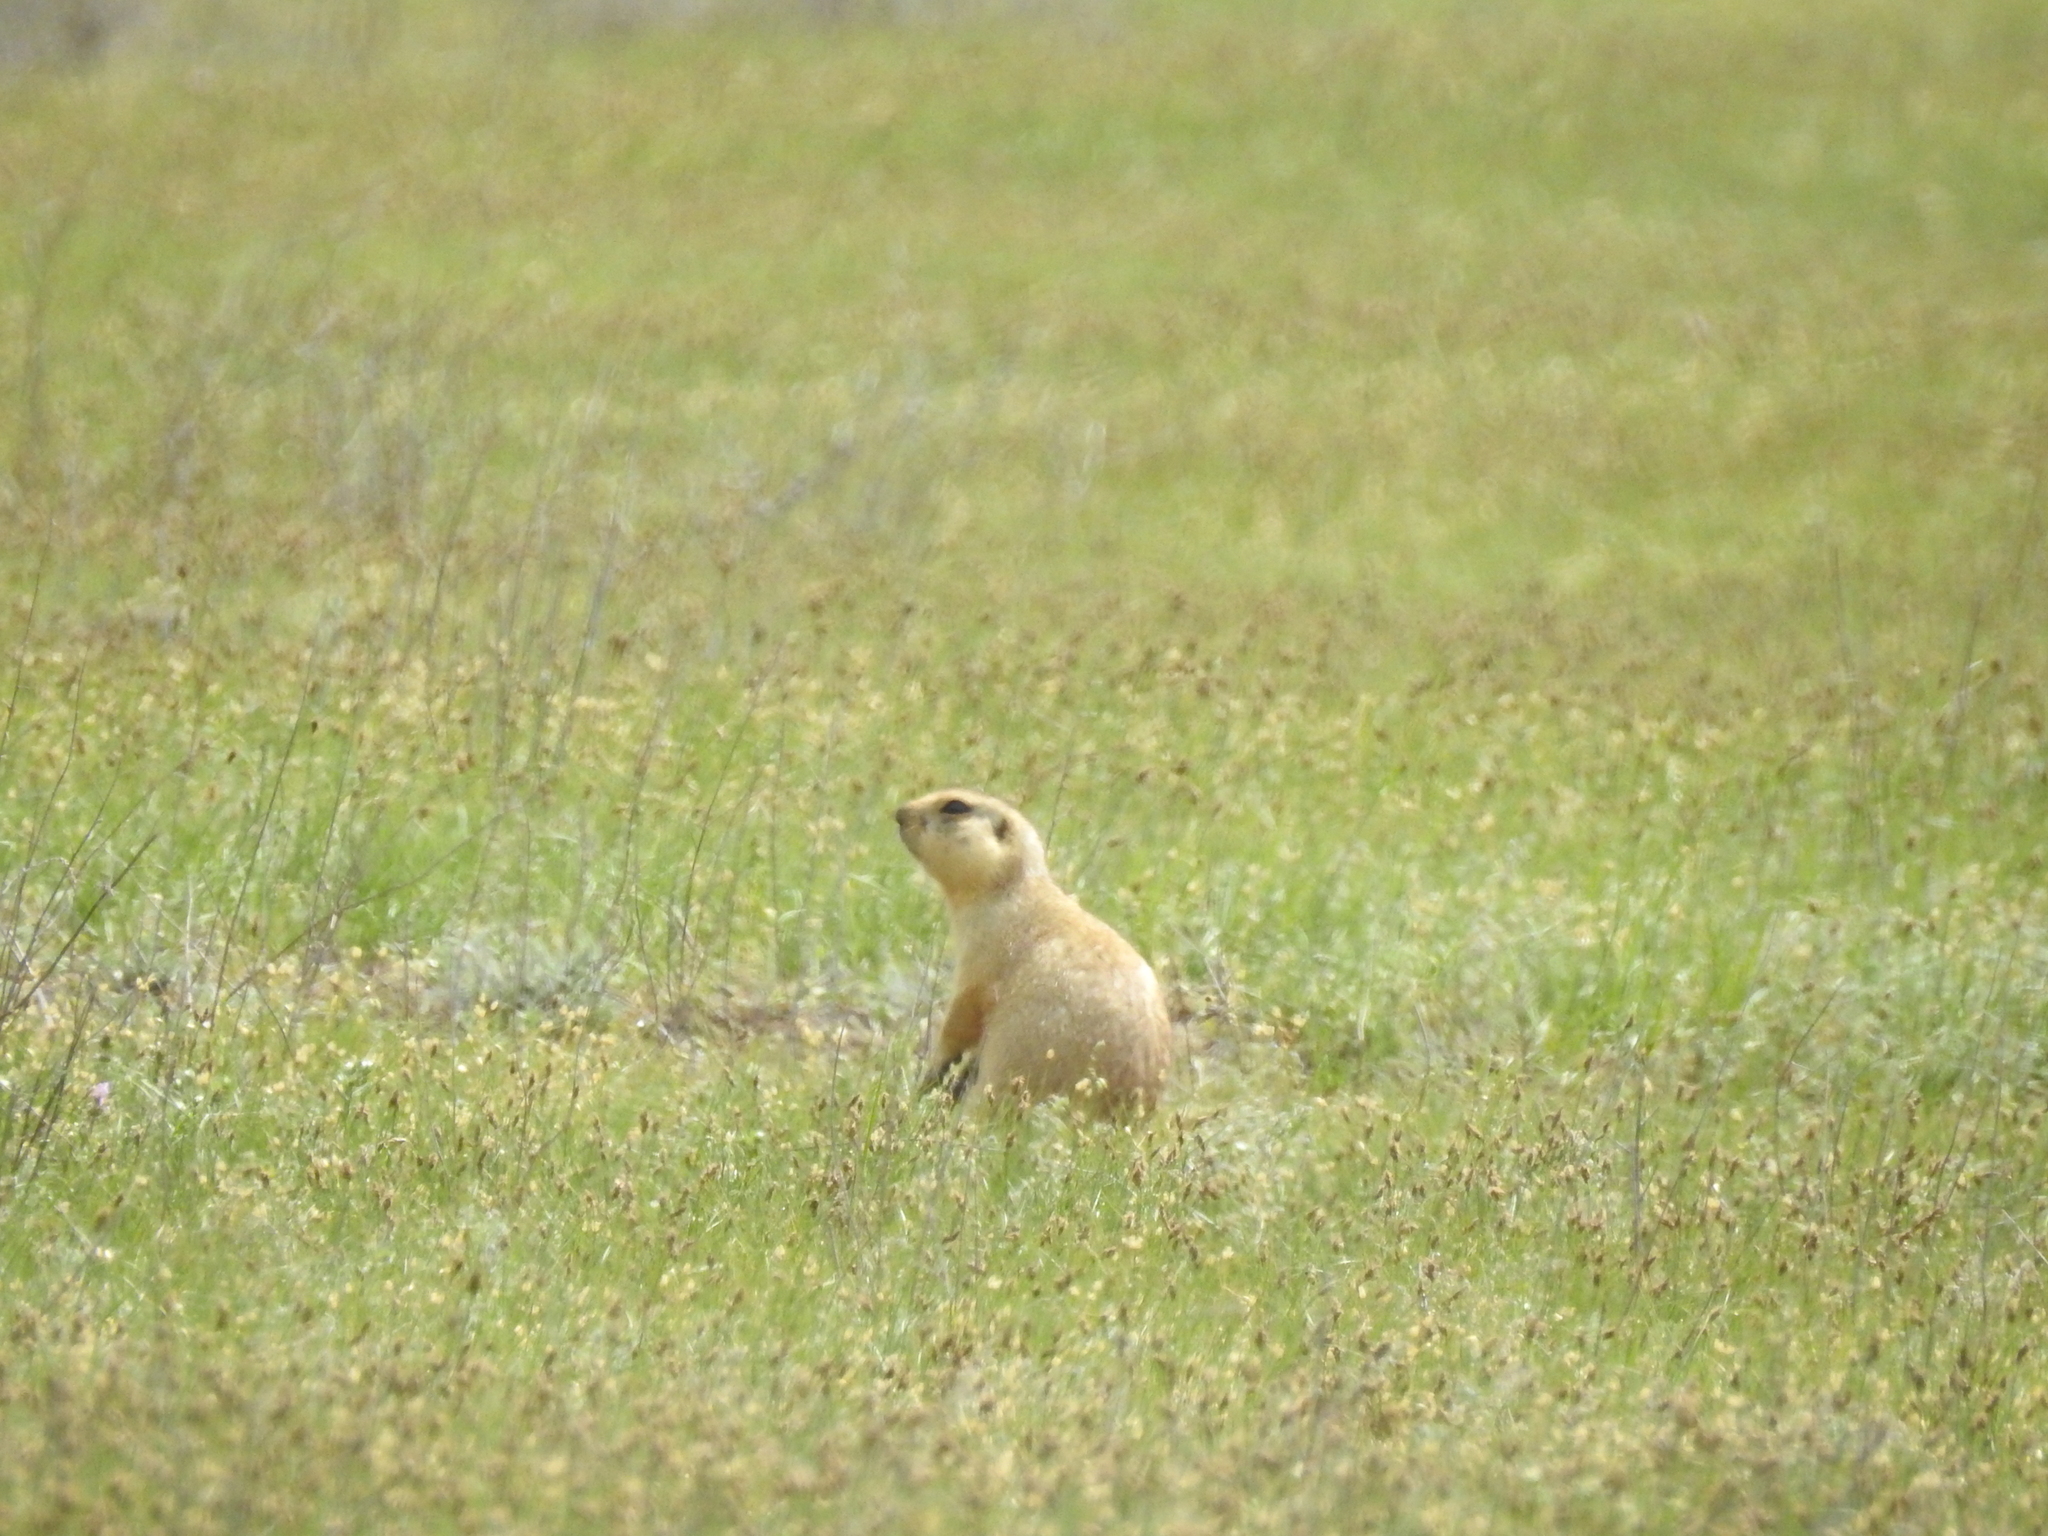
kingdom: Animalia
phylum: Chordata
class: Mammalia
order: Rodentia
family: Sciuridae
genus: Spermophilus
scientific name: Spermophilus fulvus
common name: Yellow ground squirrel
